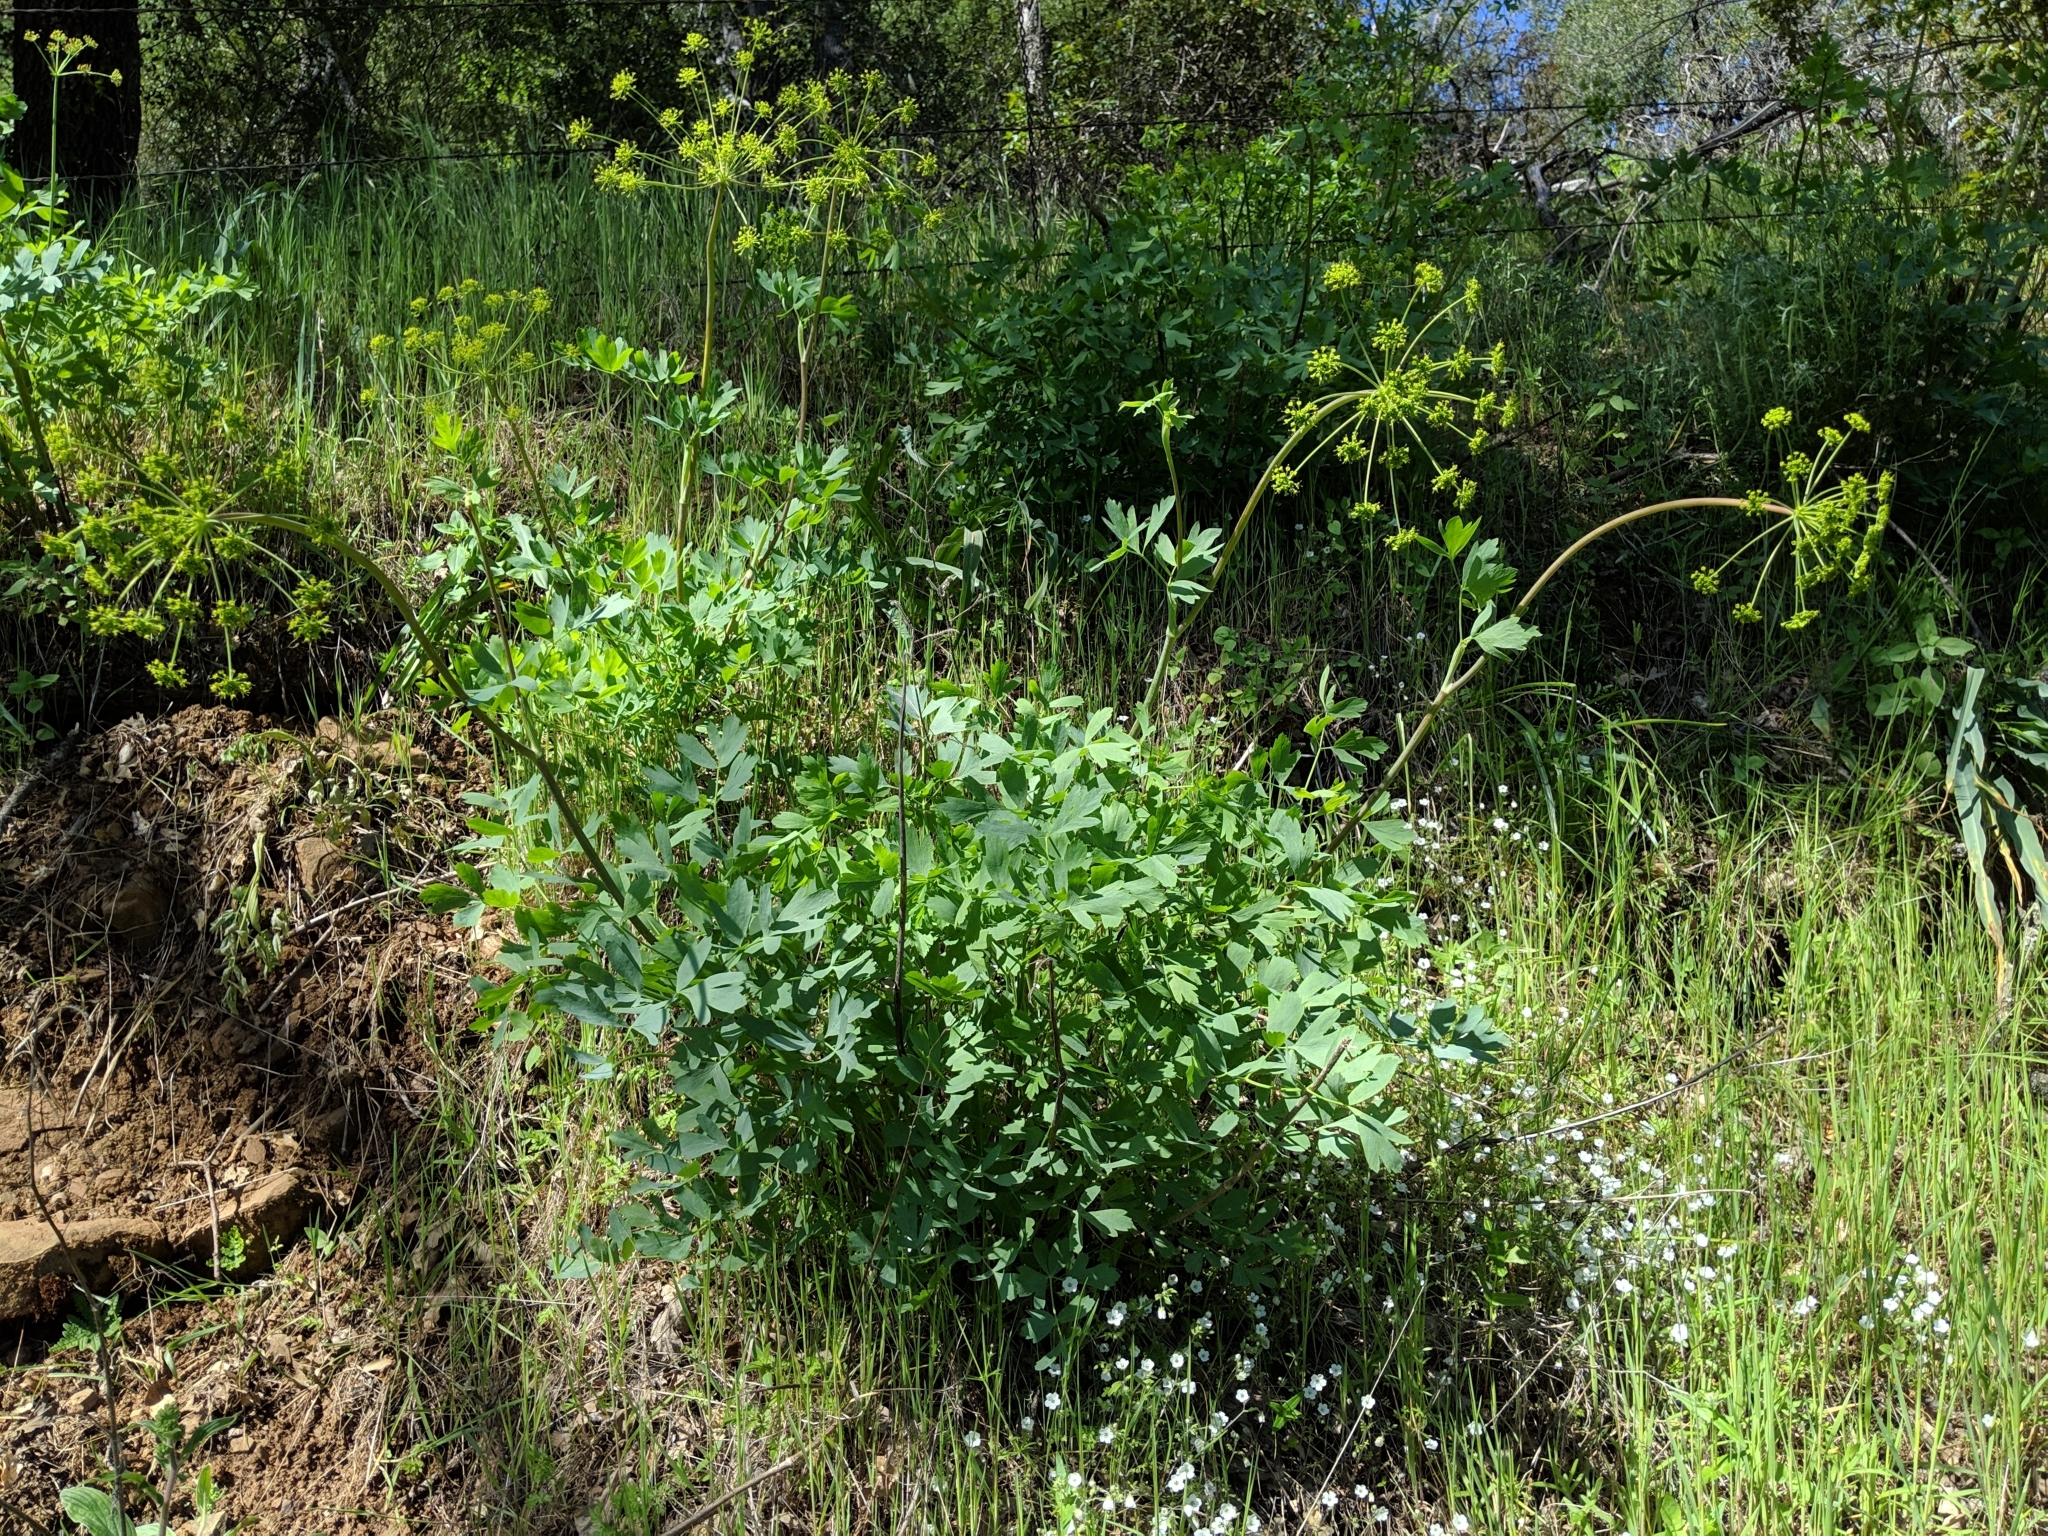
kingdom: Plantae
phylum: Tracheophyta
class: Magnoliopsida
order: Apiales
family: Apiaceae
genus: Lomatium
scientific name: Lomatium californicum
